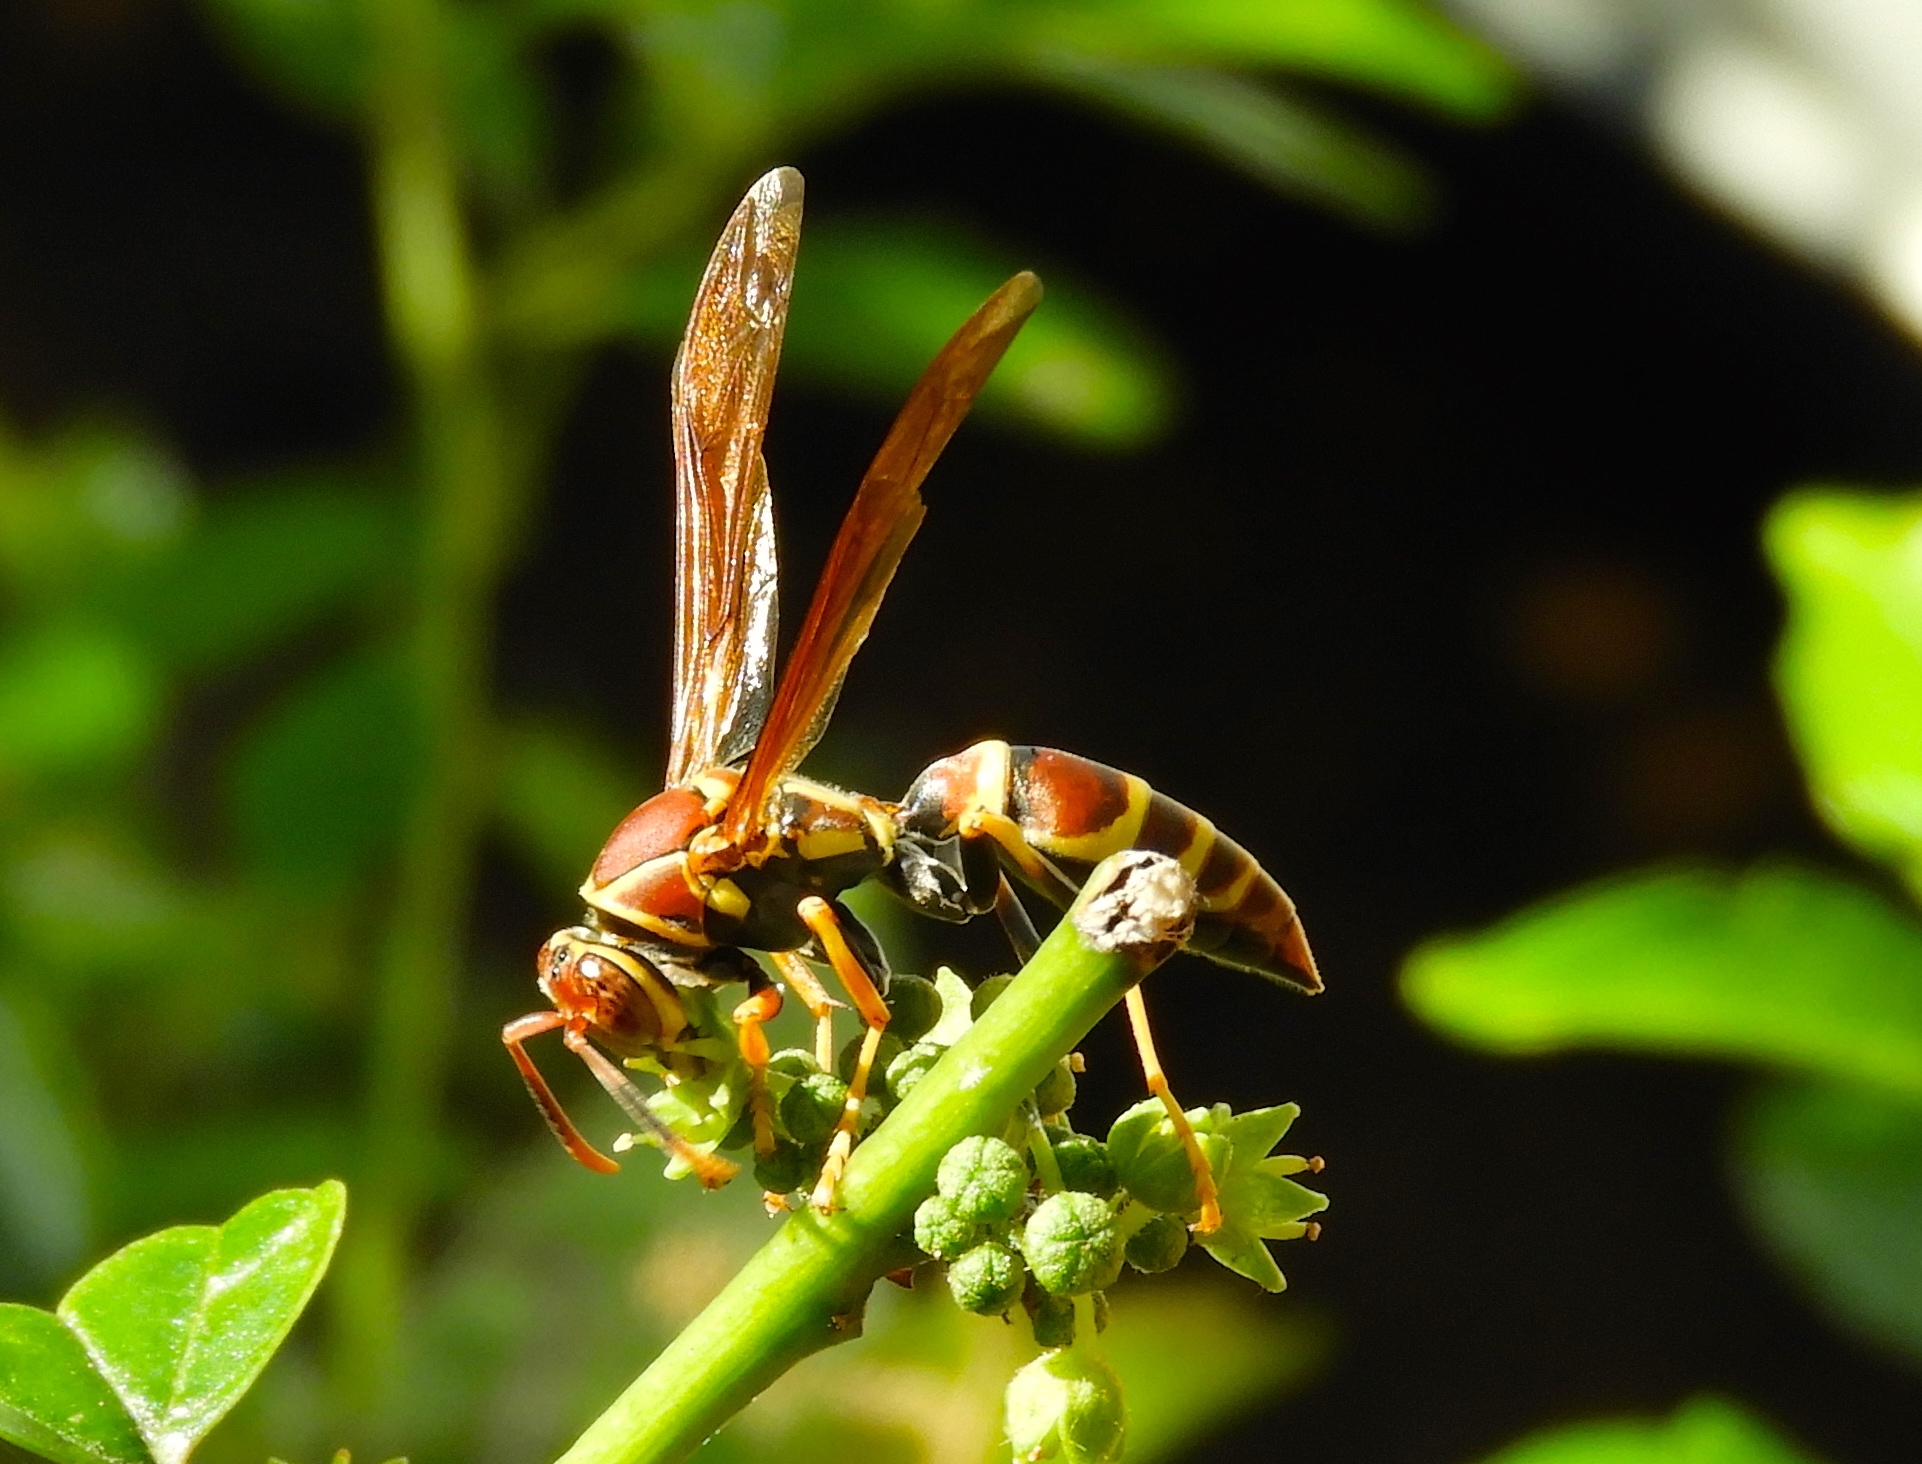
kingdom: Animalia
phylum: Arthropoda
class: Insecta
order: Hymenoptera
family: Eumenidae
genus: Polistes
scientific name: Polistes instabilis
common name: Unstable paper wasp
